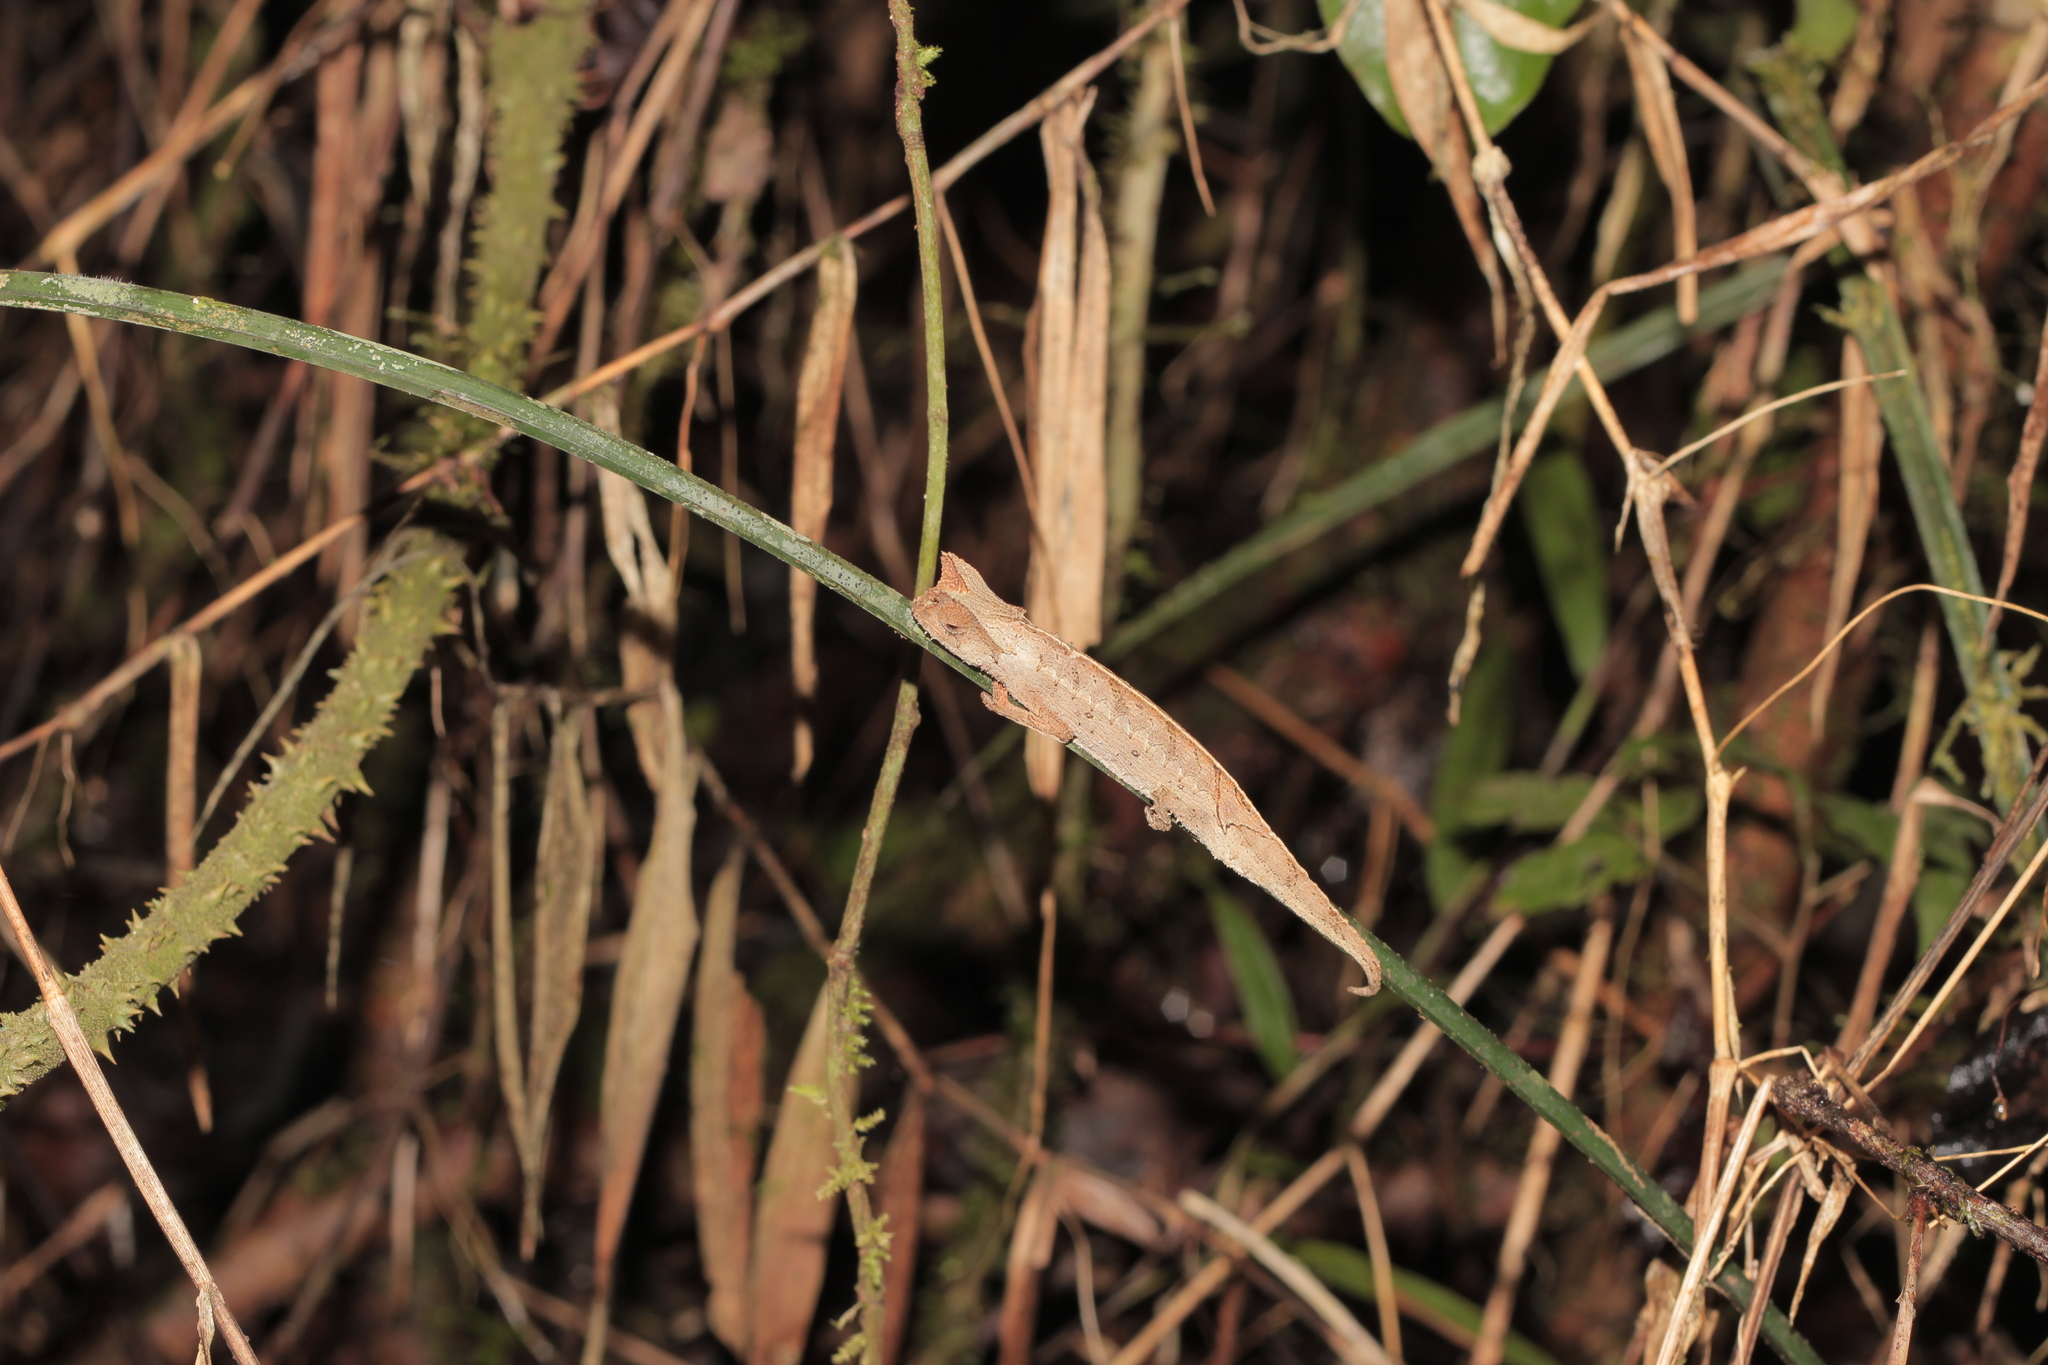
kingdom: Animalia
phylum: Chordata
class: Squamata
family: Chamaeleonidae
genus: Brookesia
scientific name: Brookesia therezieni
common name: Perinet leaf chameleon
